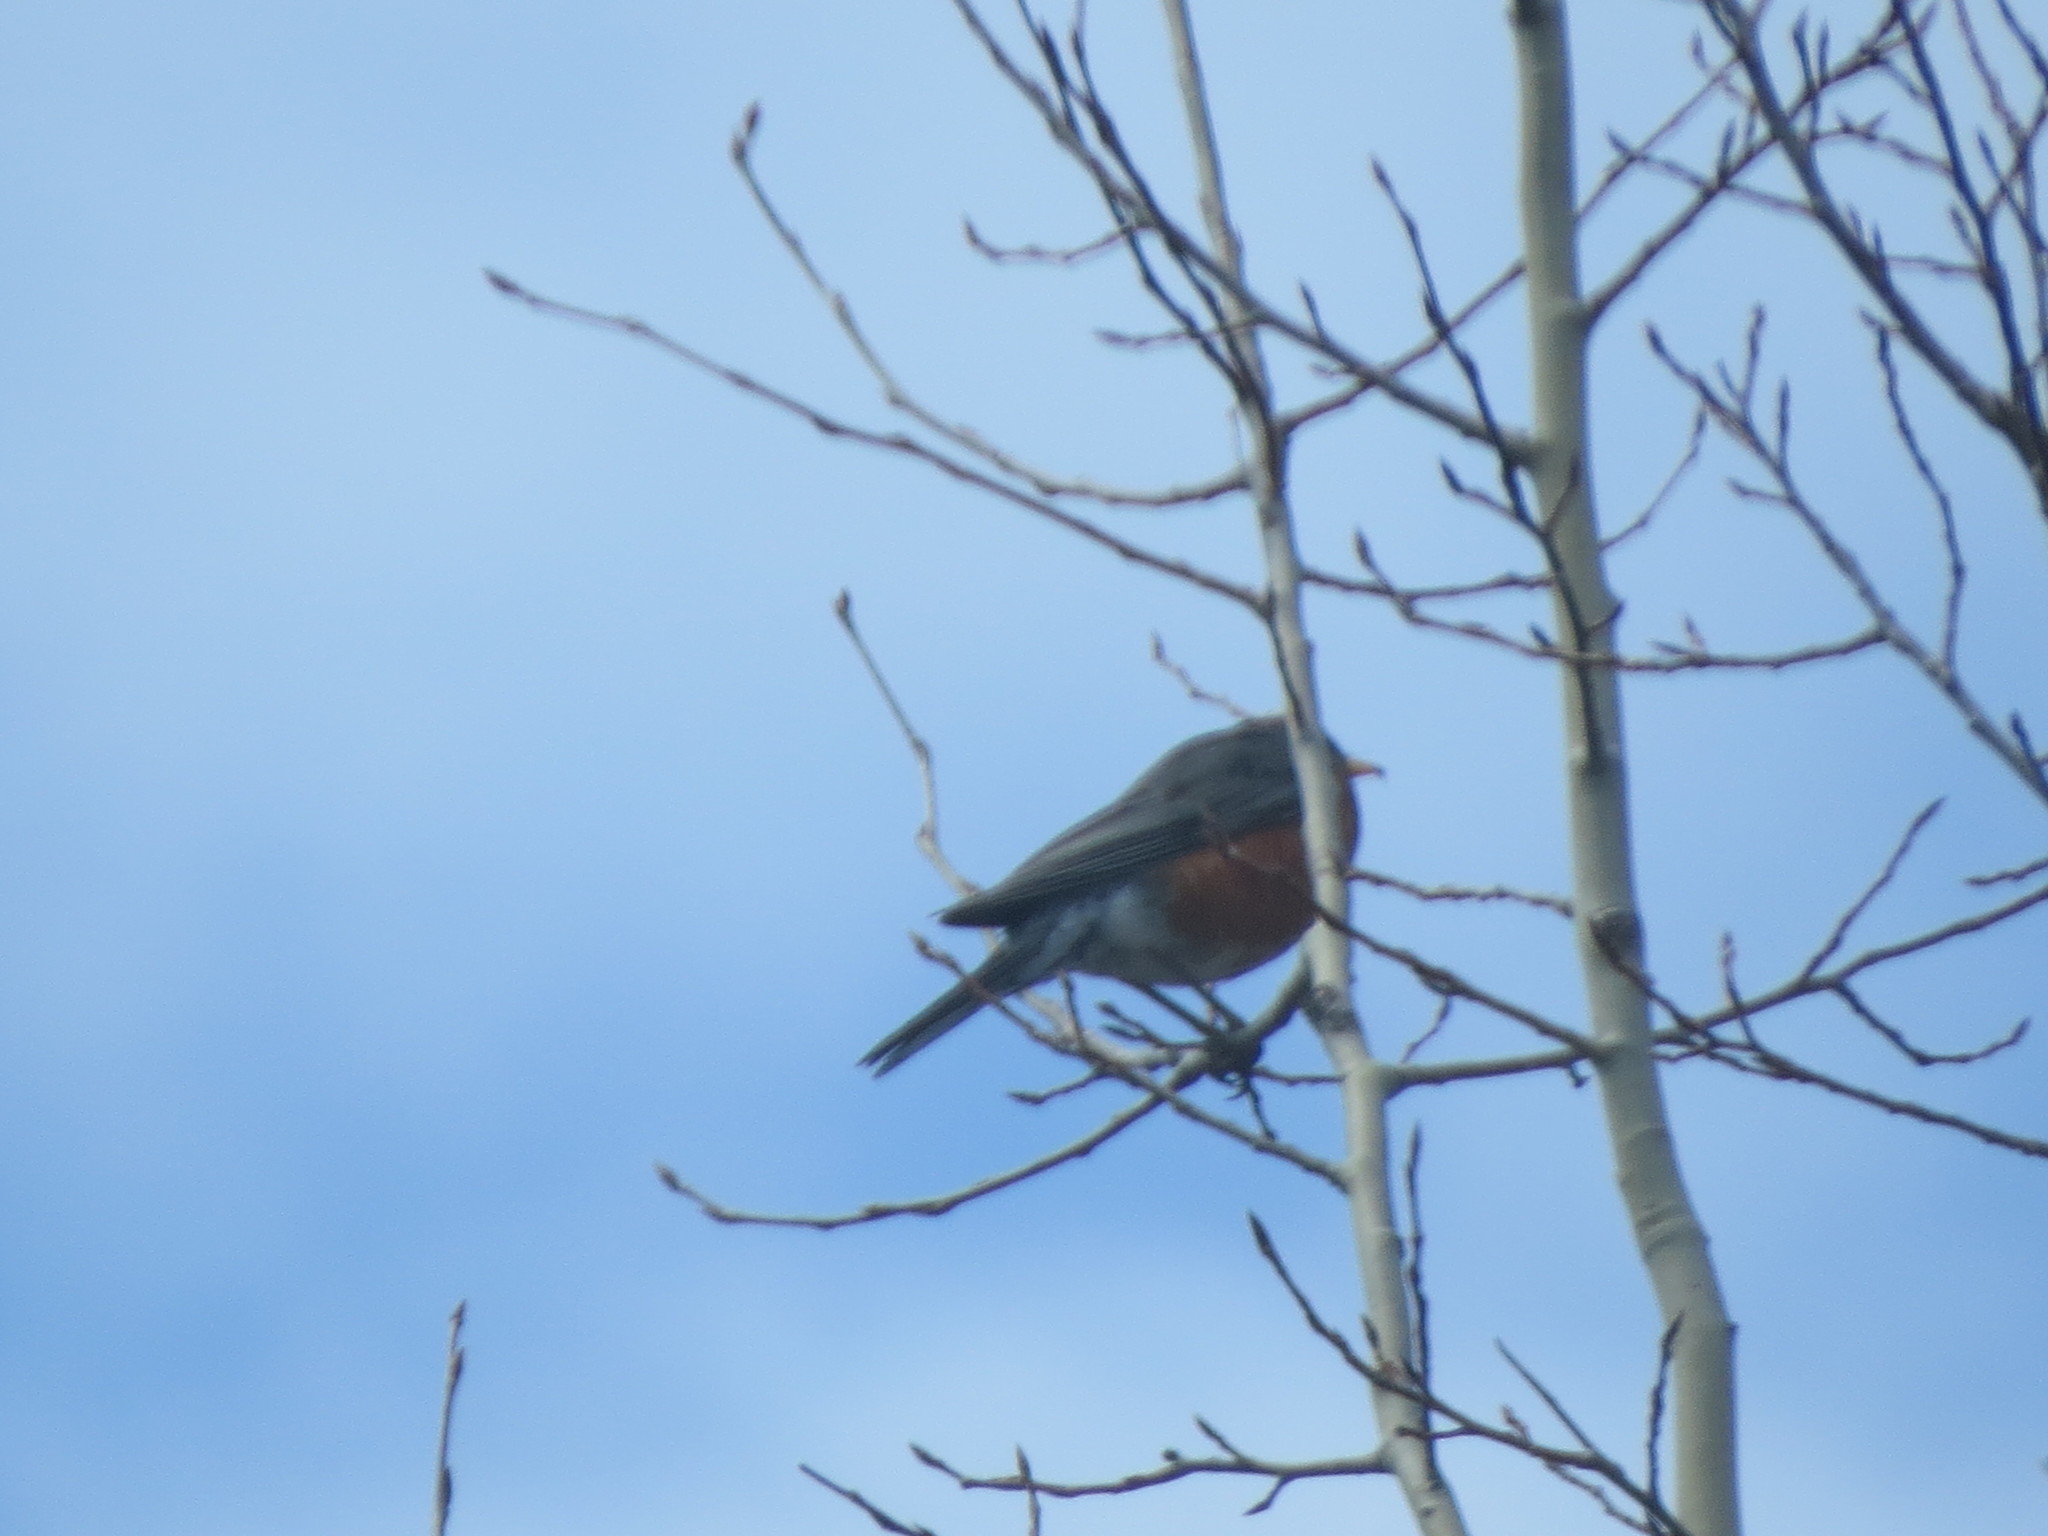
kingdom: Animalia
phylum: Chordata
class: Aves
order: Passeriformes
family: Turdidae
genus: Turdus
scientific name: Turdus migratorius
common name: American robin
